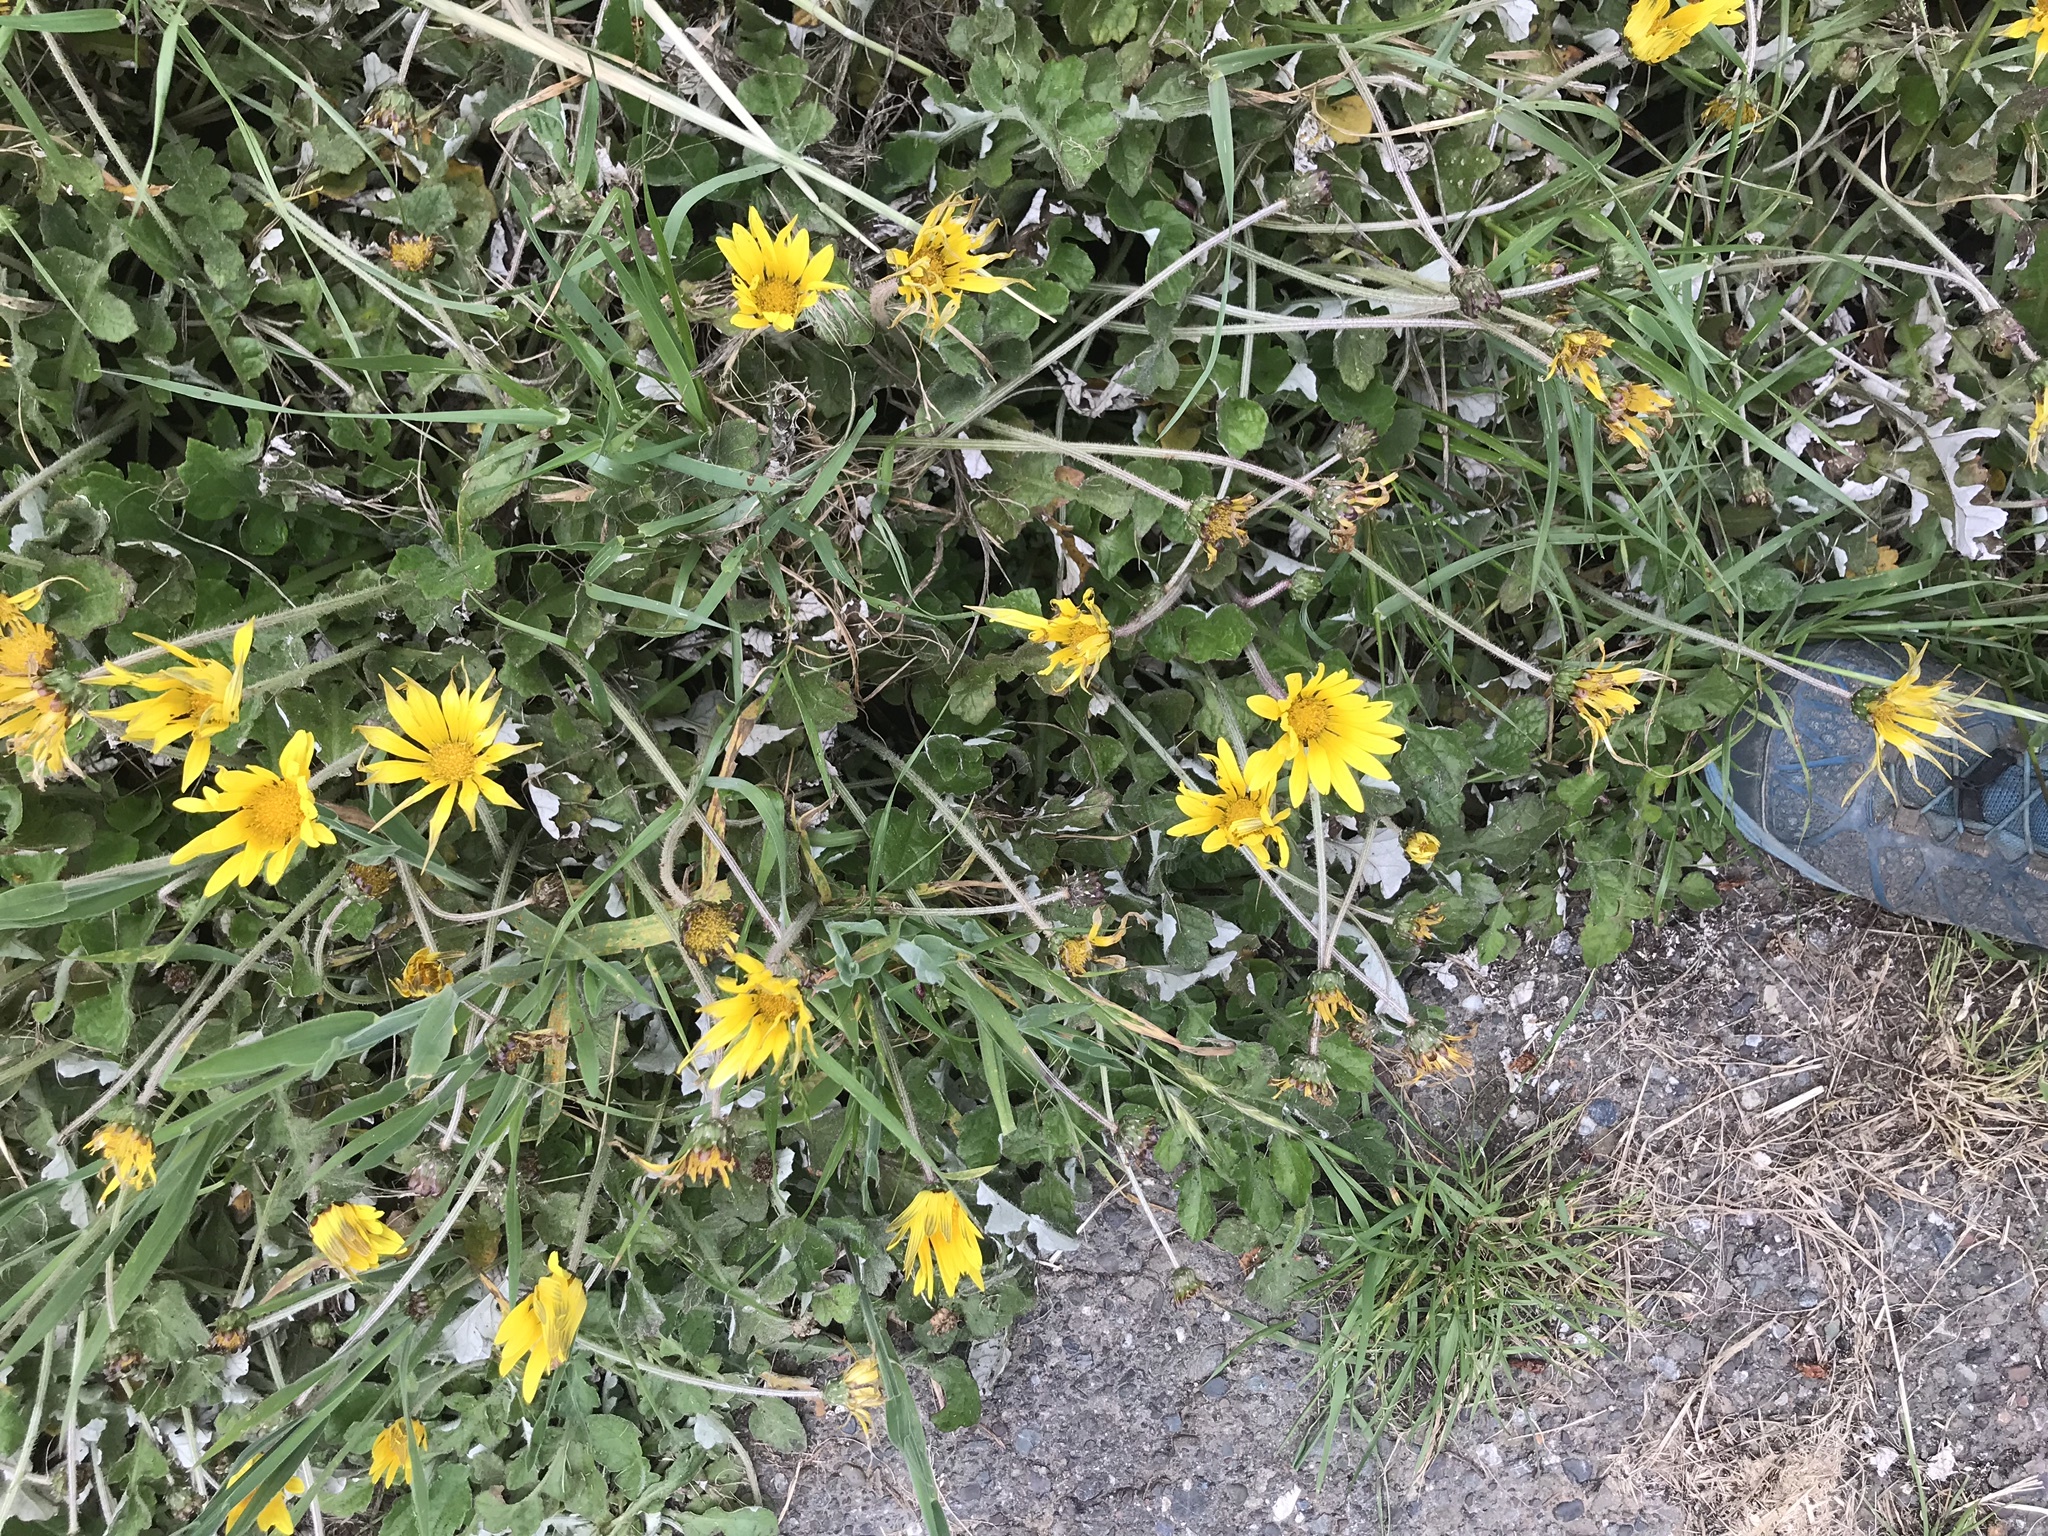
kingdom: Plantae
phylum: Tracheophyta
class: Magnoliopsida
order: Asterales
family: Asteraceae
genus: Arctotheca
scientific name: Arctotheca prostrata
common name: Capeweed
